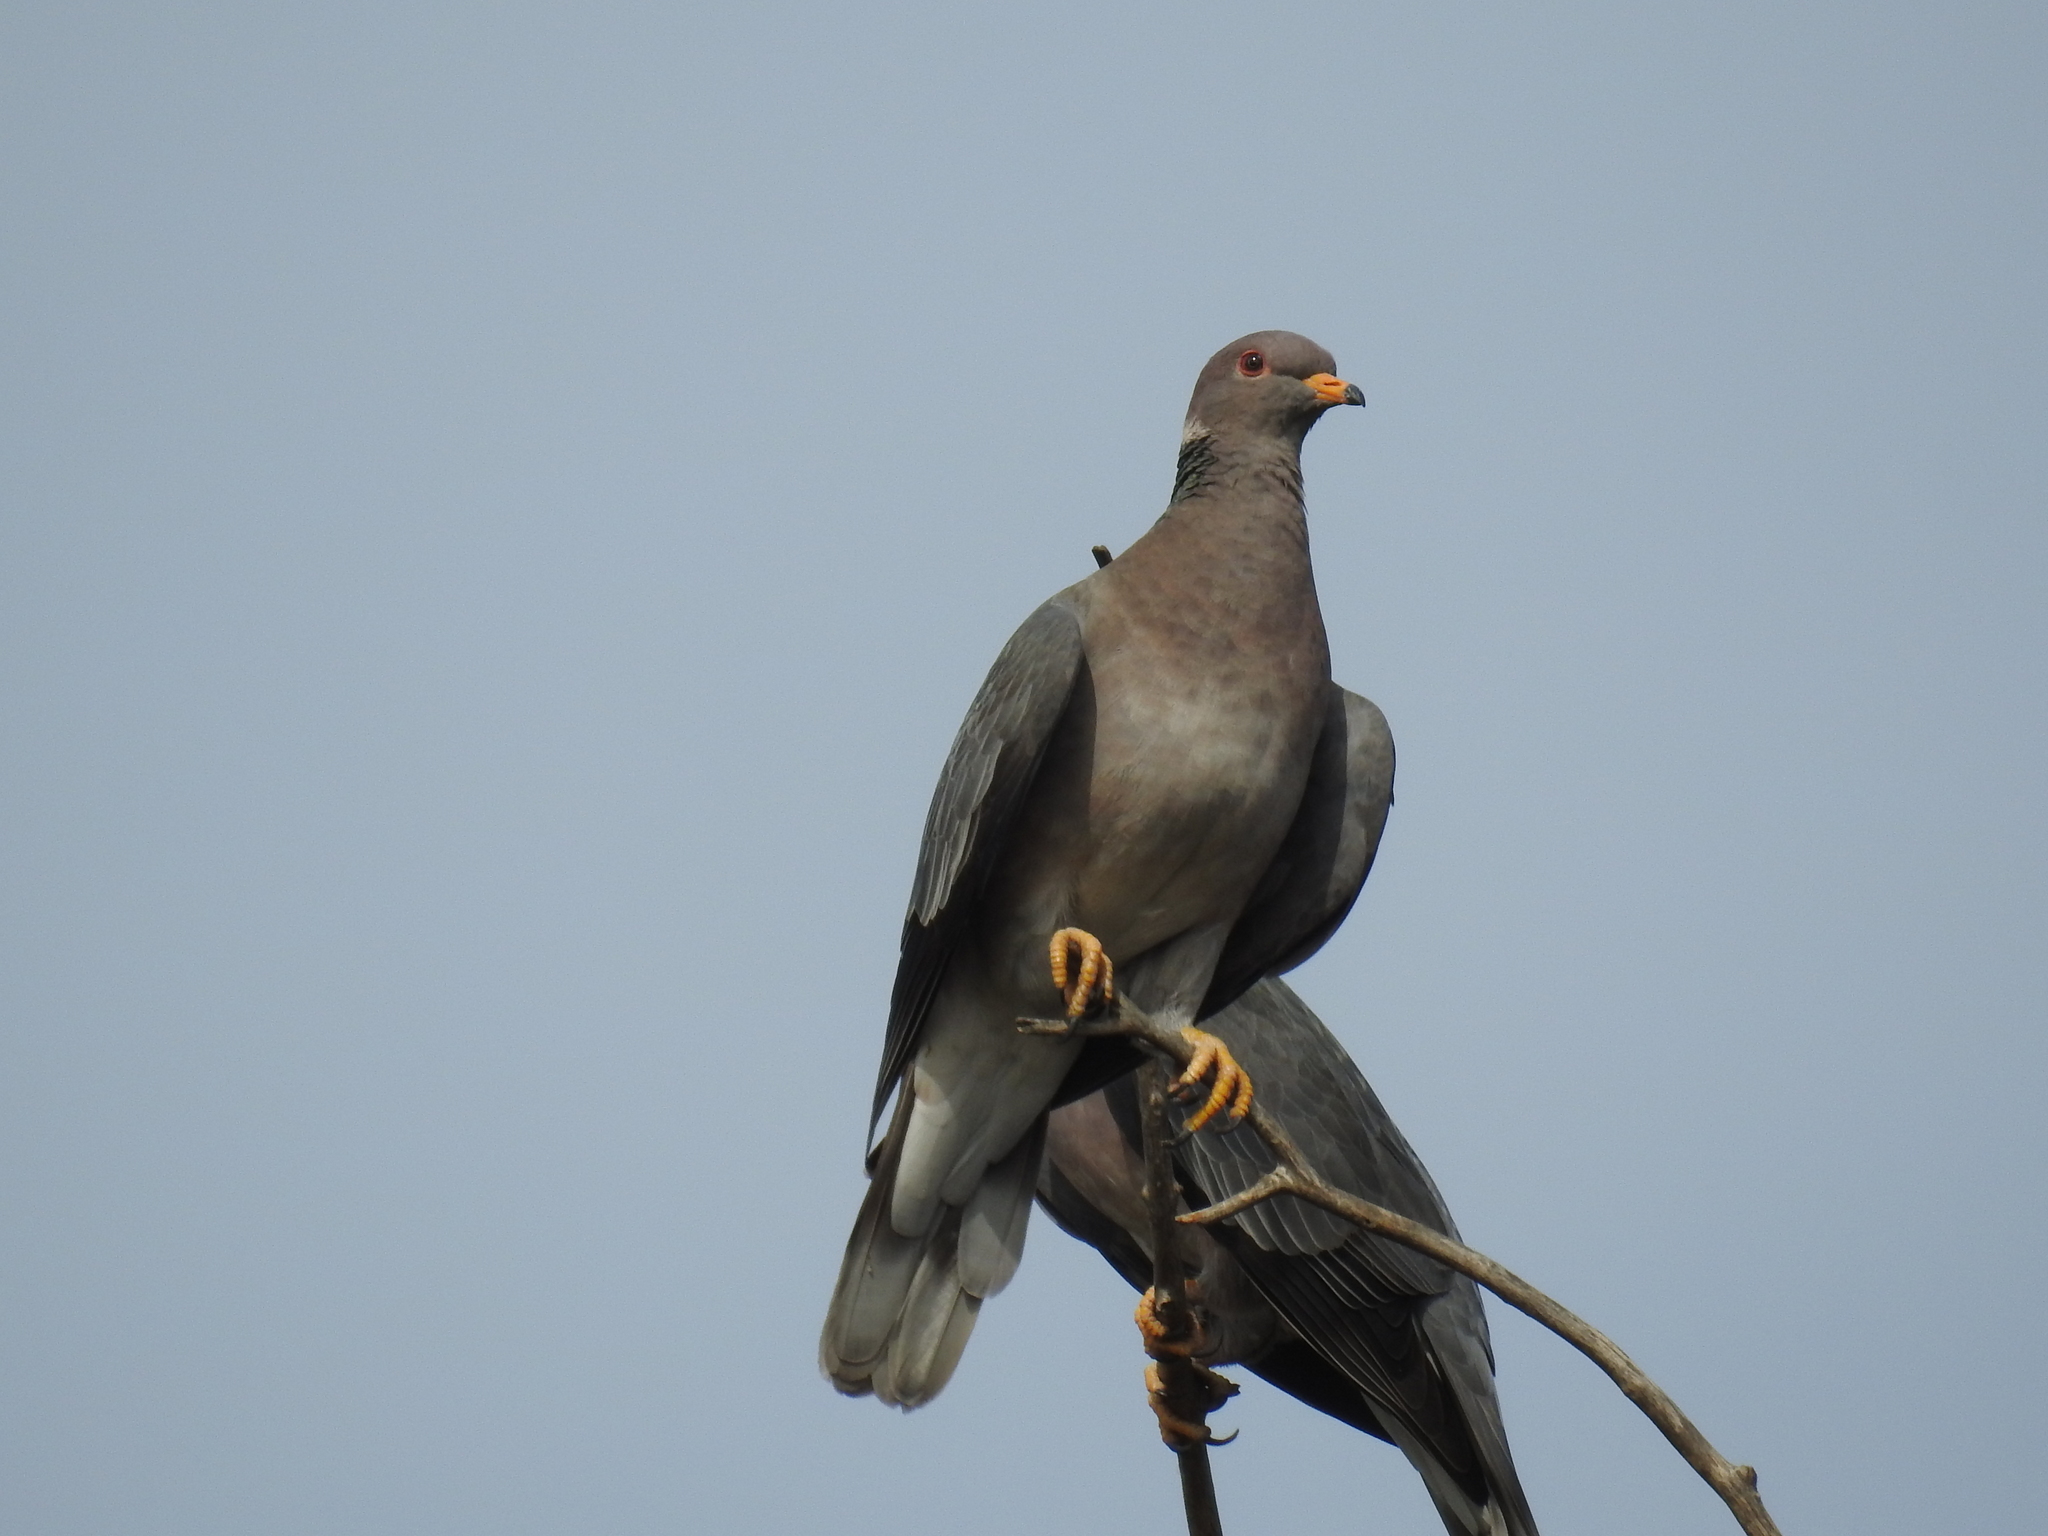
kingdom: Animalia
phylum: Chordata
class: Aves
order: Columbiformes
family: Columbidae
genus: Patagioenas
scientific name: Patagioenas fasciata
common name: Band-tailed pigeon
